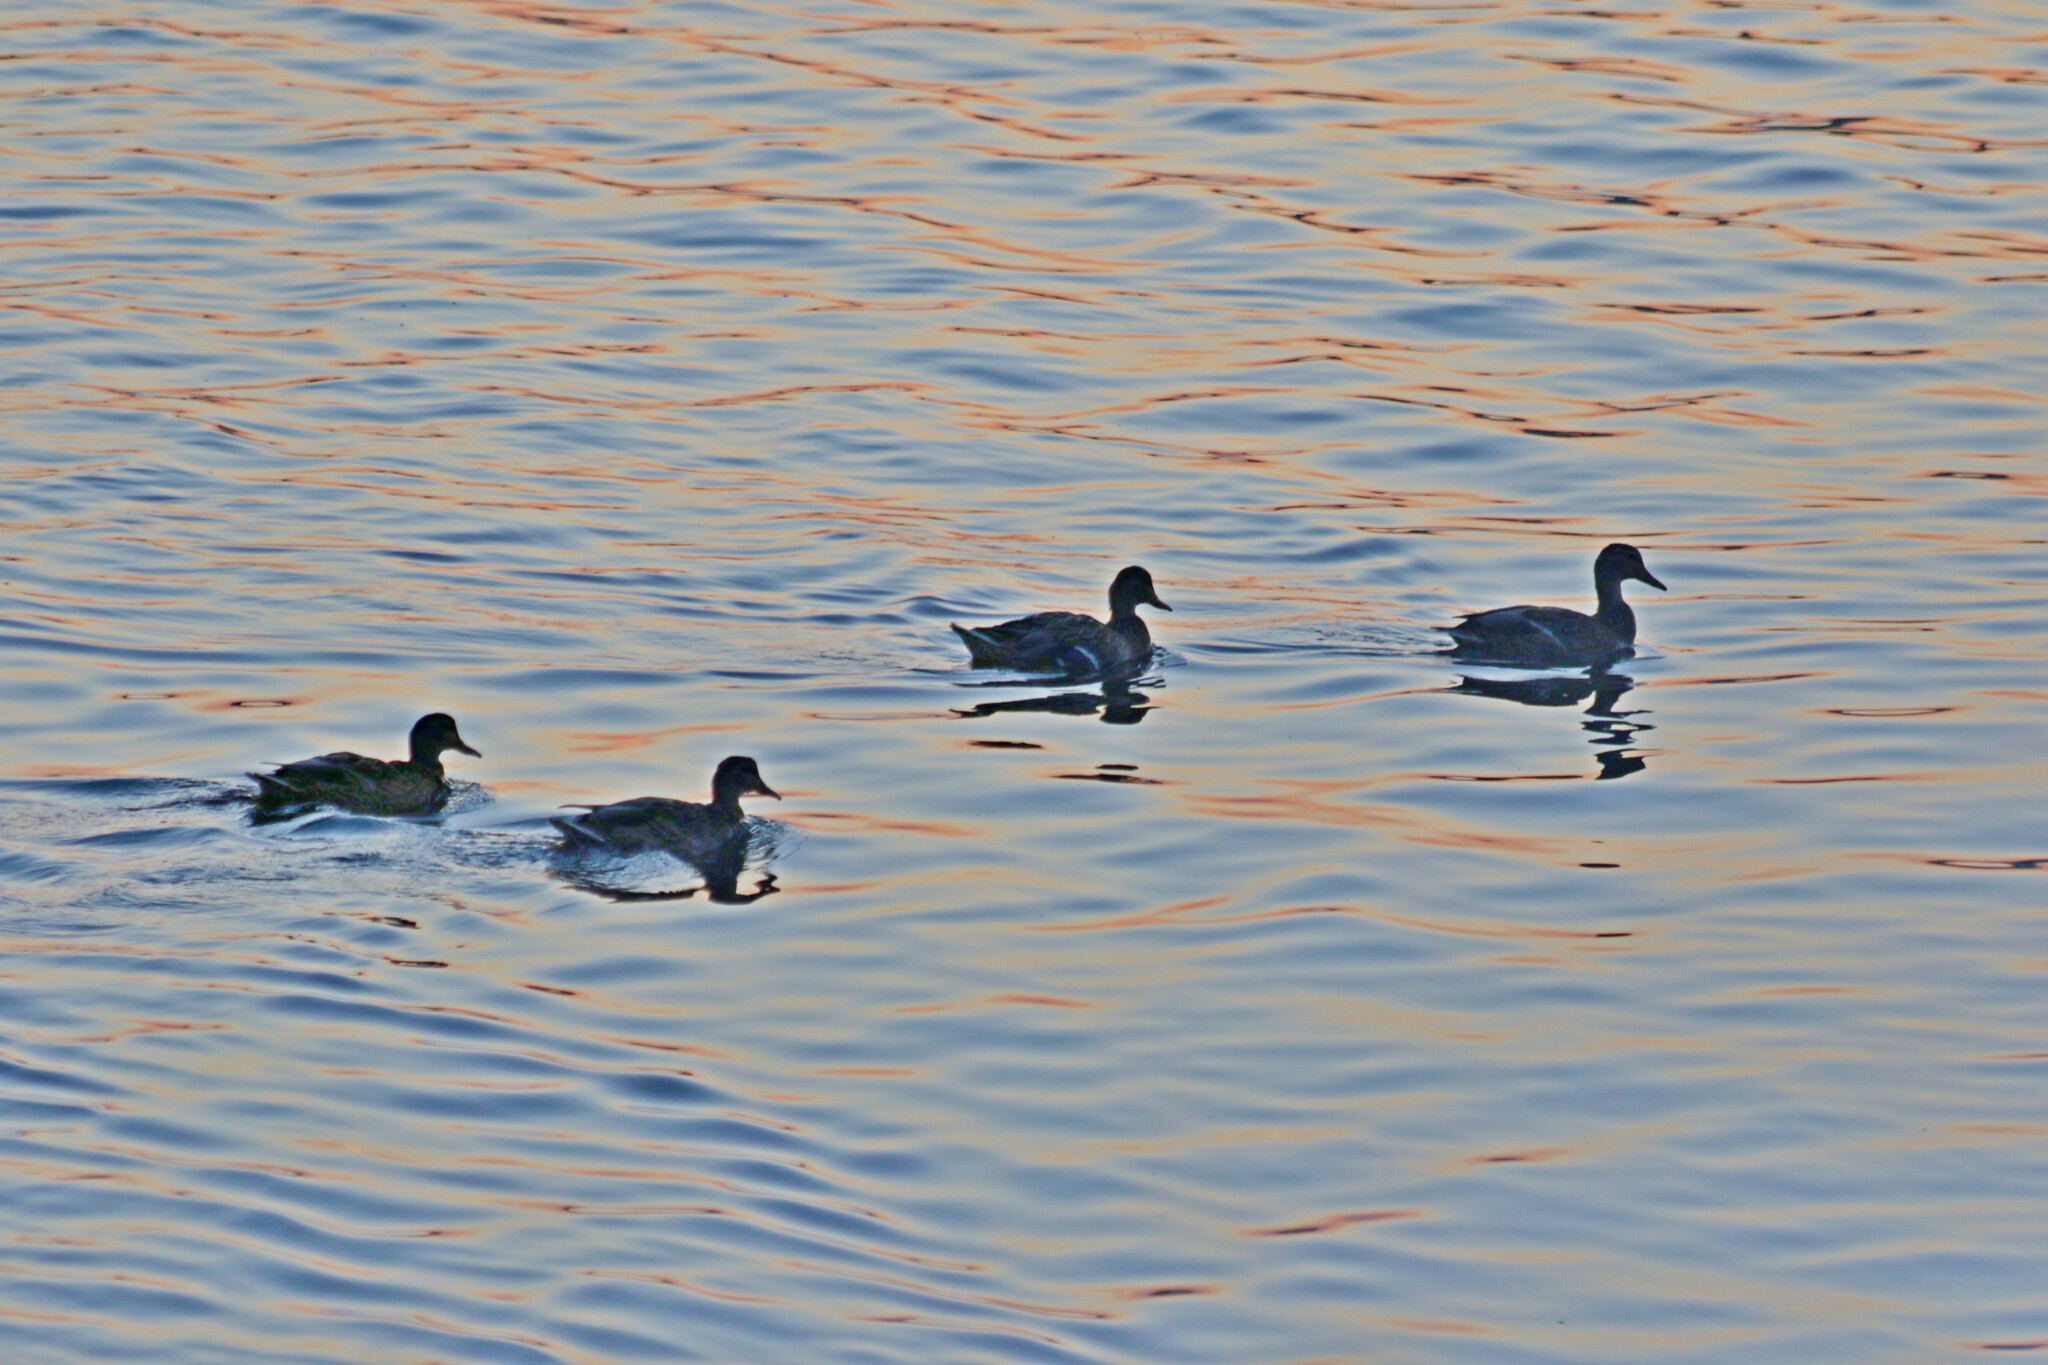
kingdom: Animalia
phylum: Chordata
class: Aves
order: Anseriformes
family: Anatidae
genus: Anas
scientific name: Anas platyrhynchos
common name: Mallard
